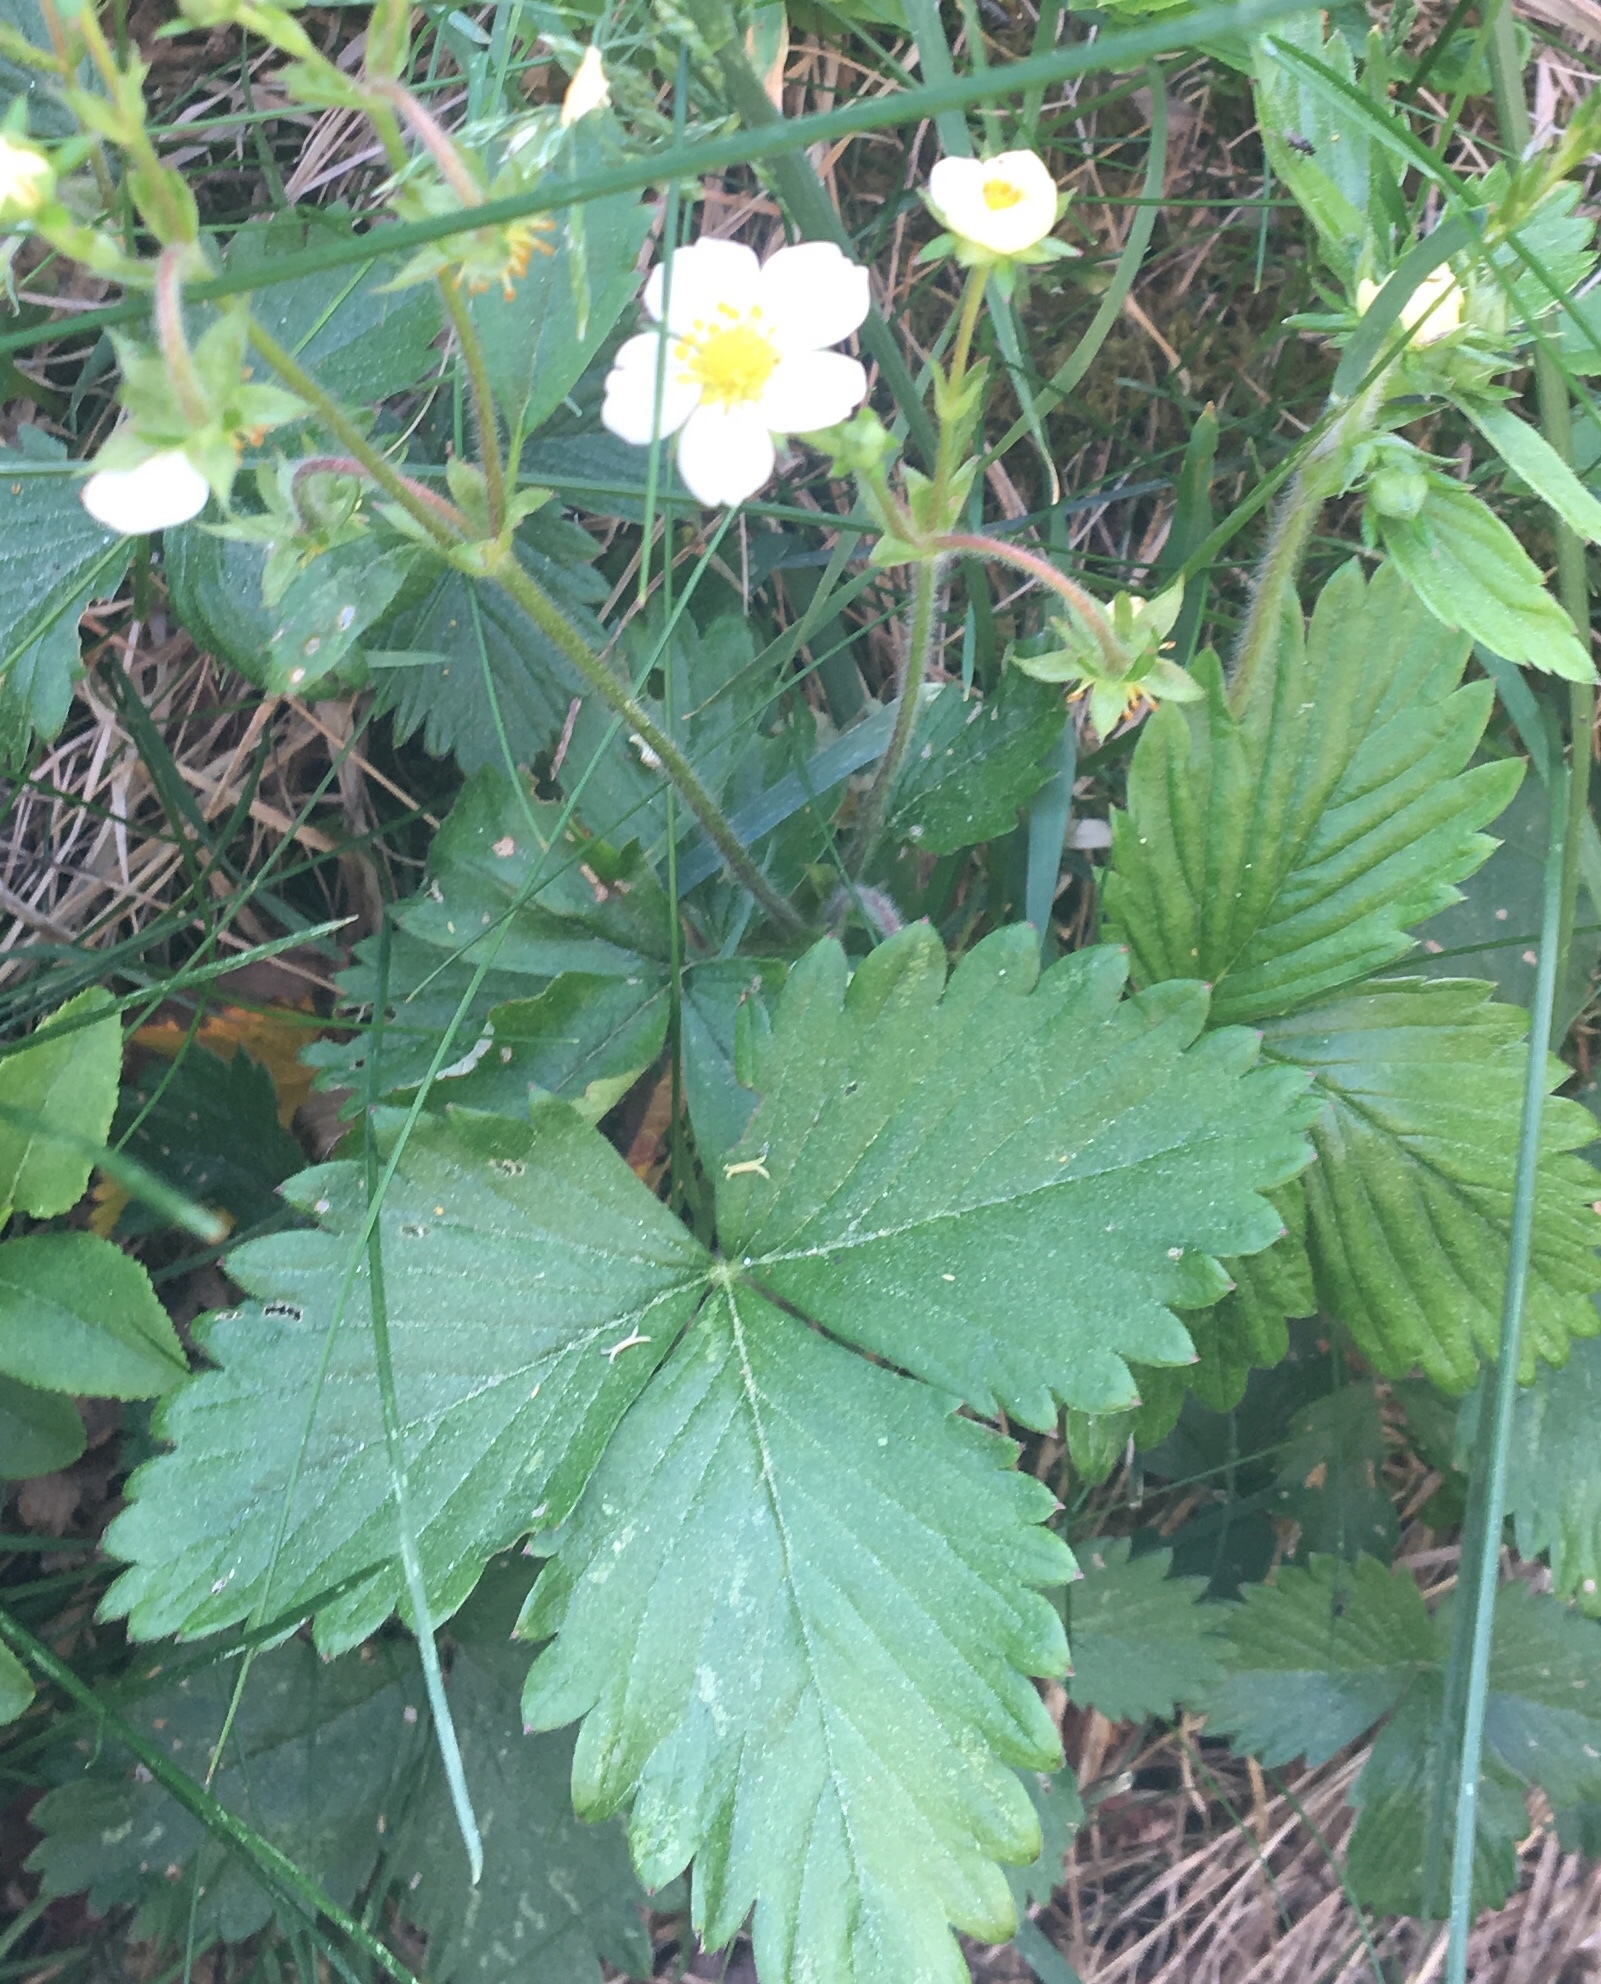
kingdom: Plantae
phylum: Tracheophyta
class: Magnoliopsida
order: Rosales
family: Rosaceae
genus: Fragaria
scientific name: Fragaria vesca
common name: Wild strawberry
